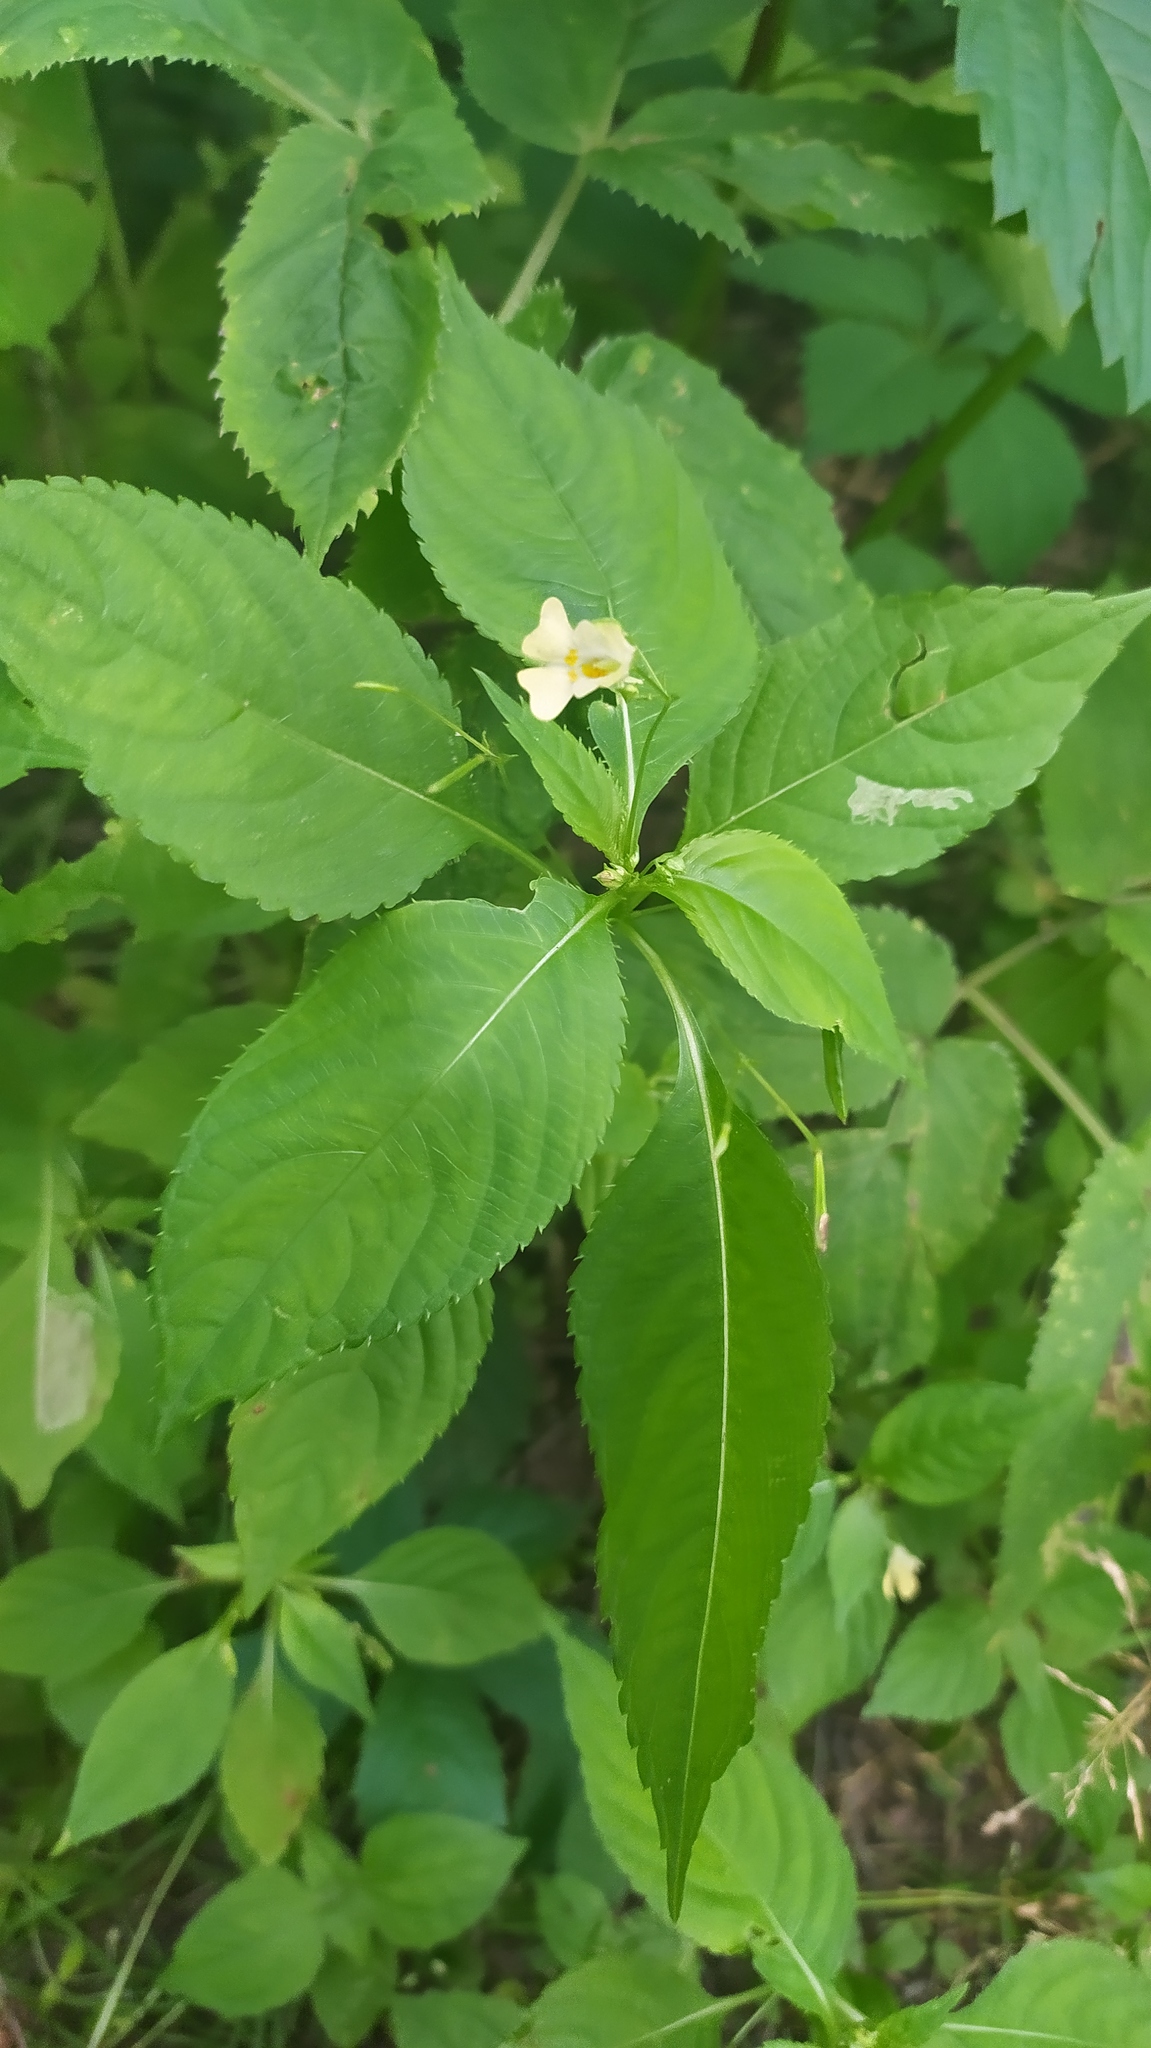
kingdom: Plantae
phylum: Tracheophyta
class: Magnoliopsida
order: Ericales
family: Balsaminaceae
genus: Impatiens
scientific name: Impatiens parviflora
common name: Small balsam
